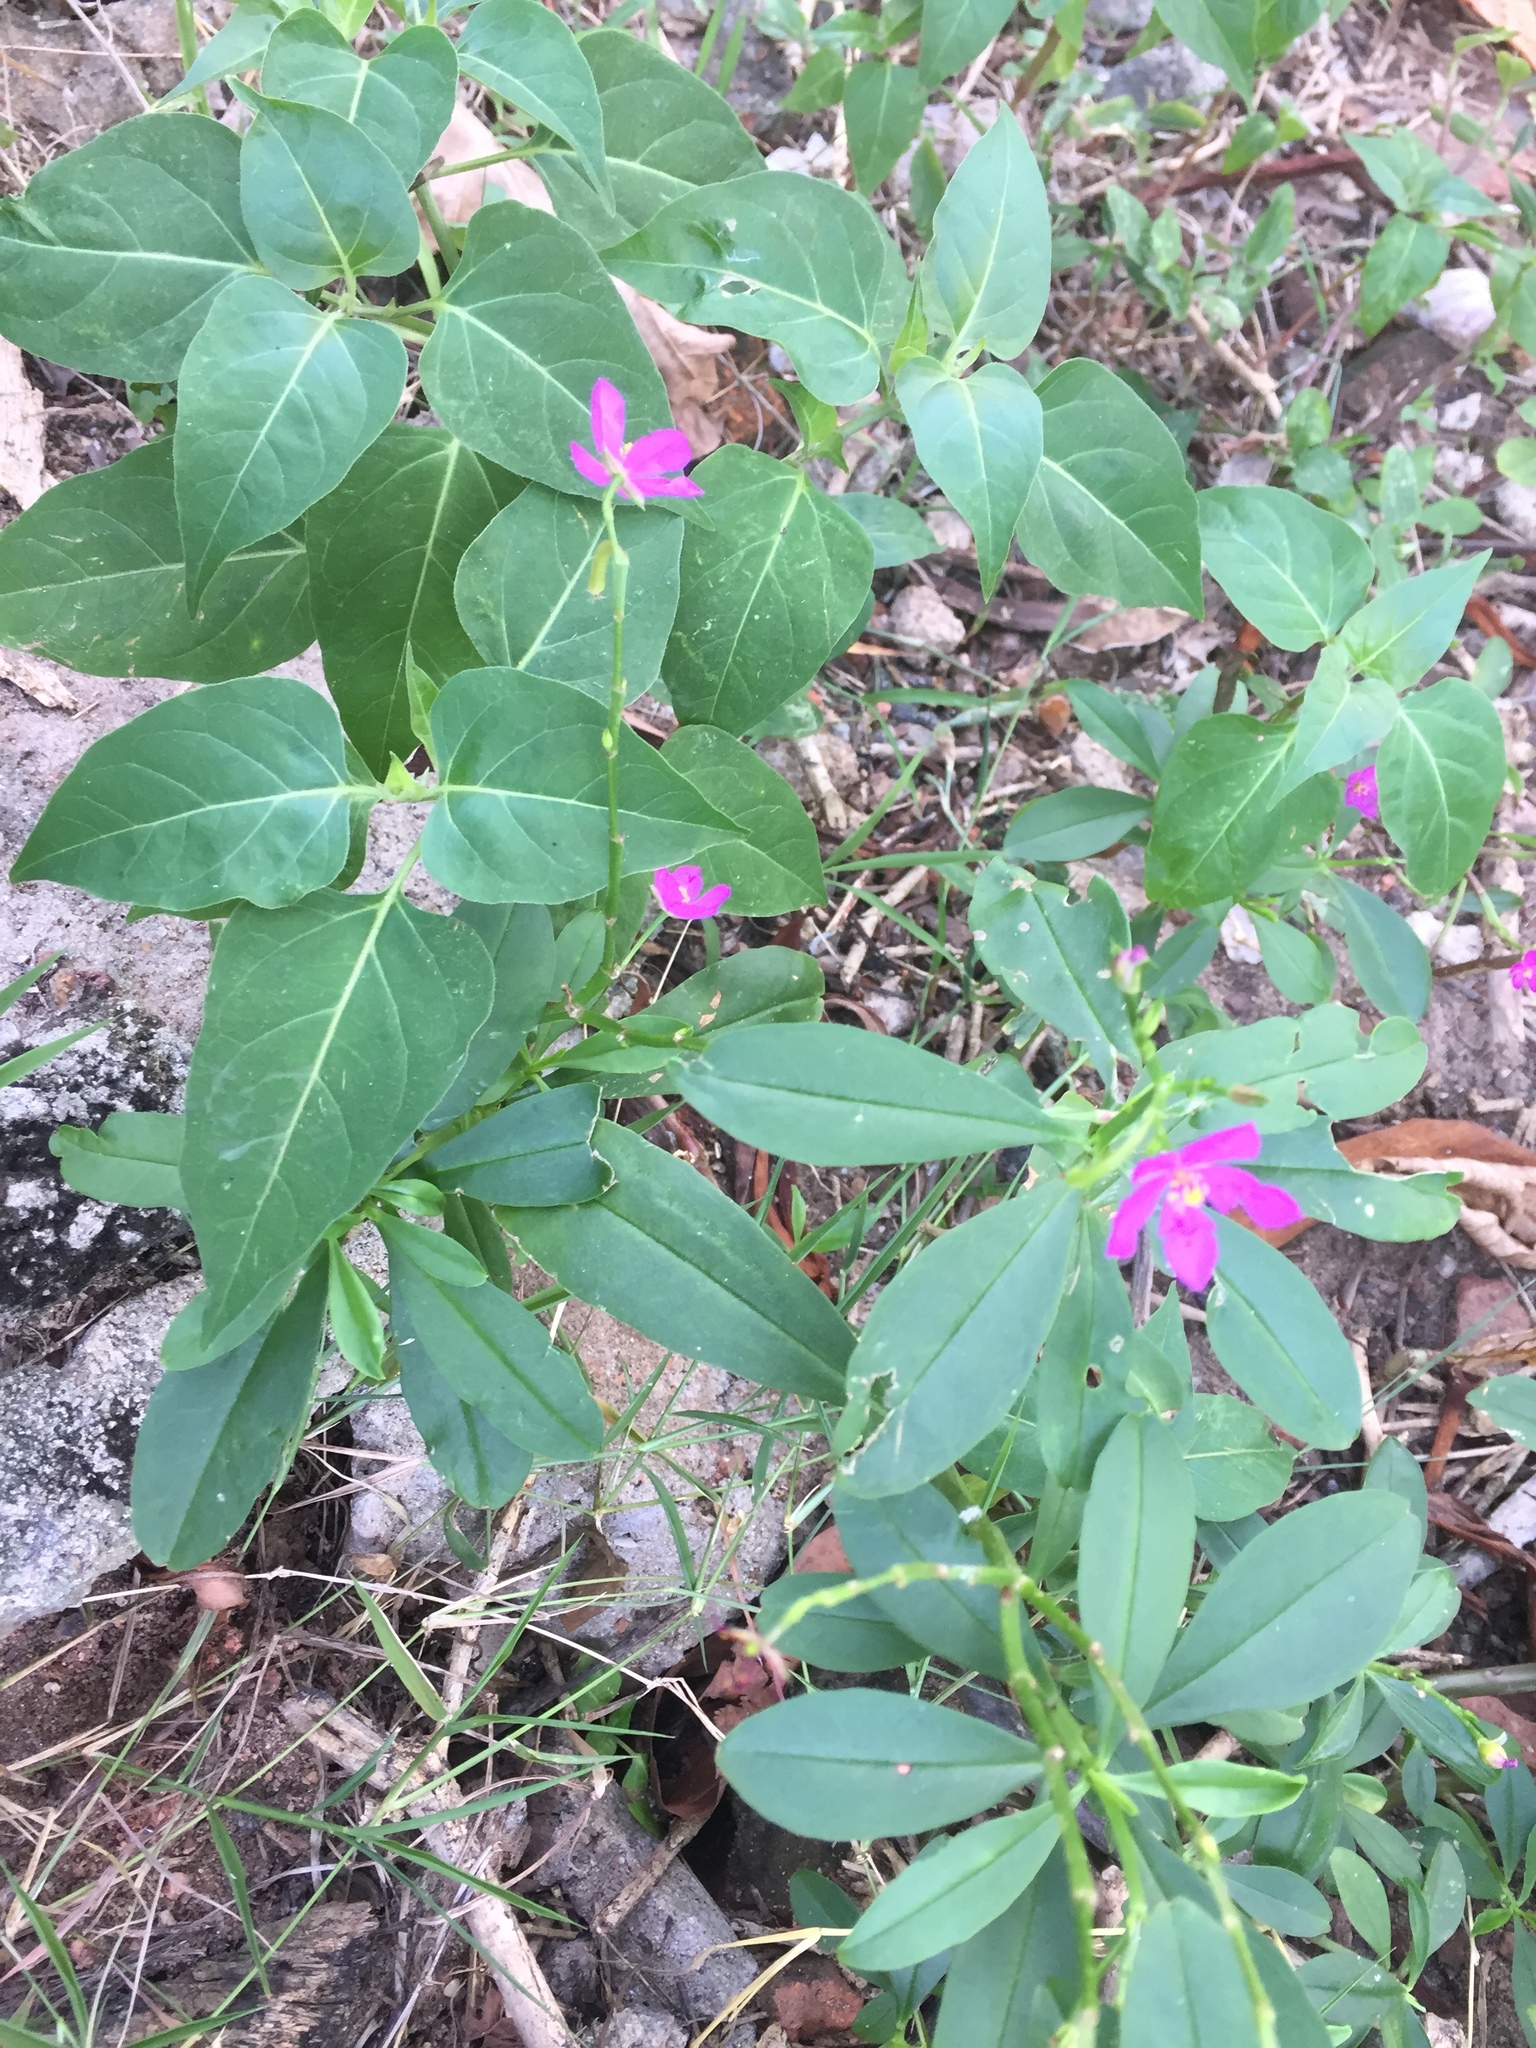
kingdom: Plantae
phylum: Tracheophyta
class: Magnoliopsida
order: Caryophyllales
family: Talinaceae
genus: Talinum
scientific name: Talinum fruticosum
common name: Verdolaga-francesa
